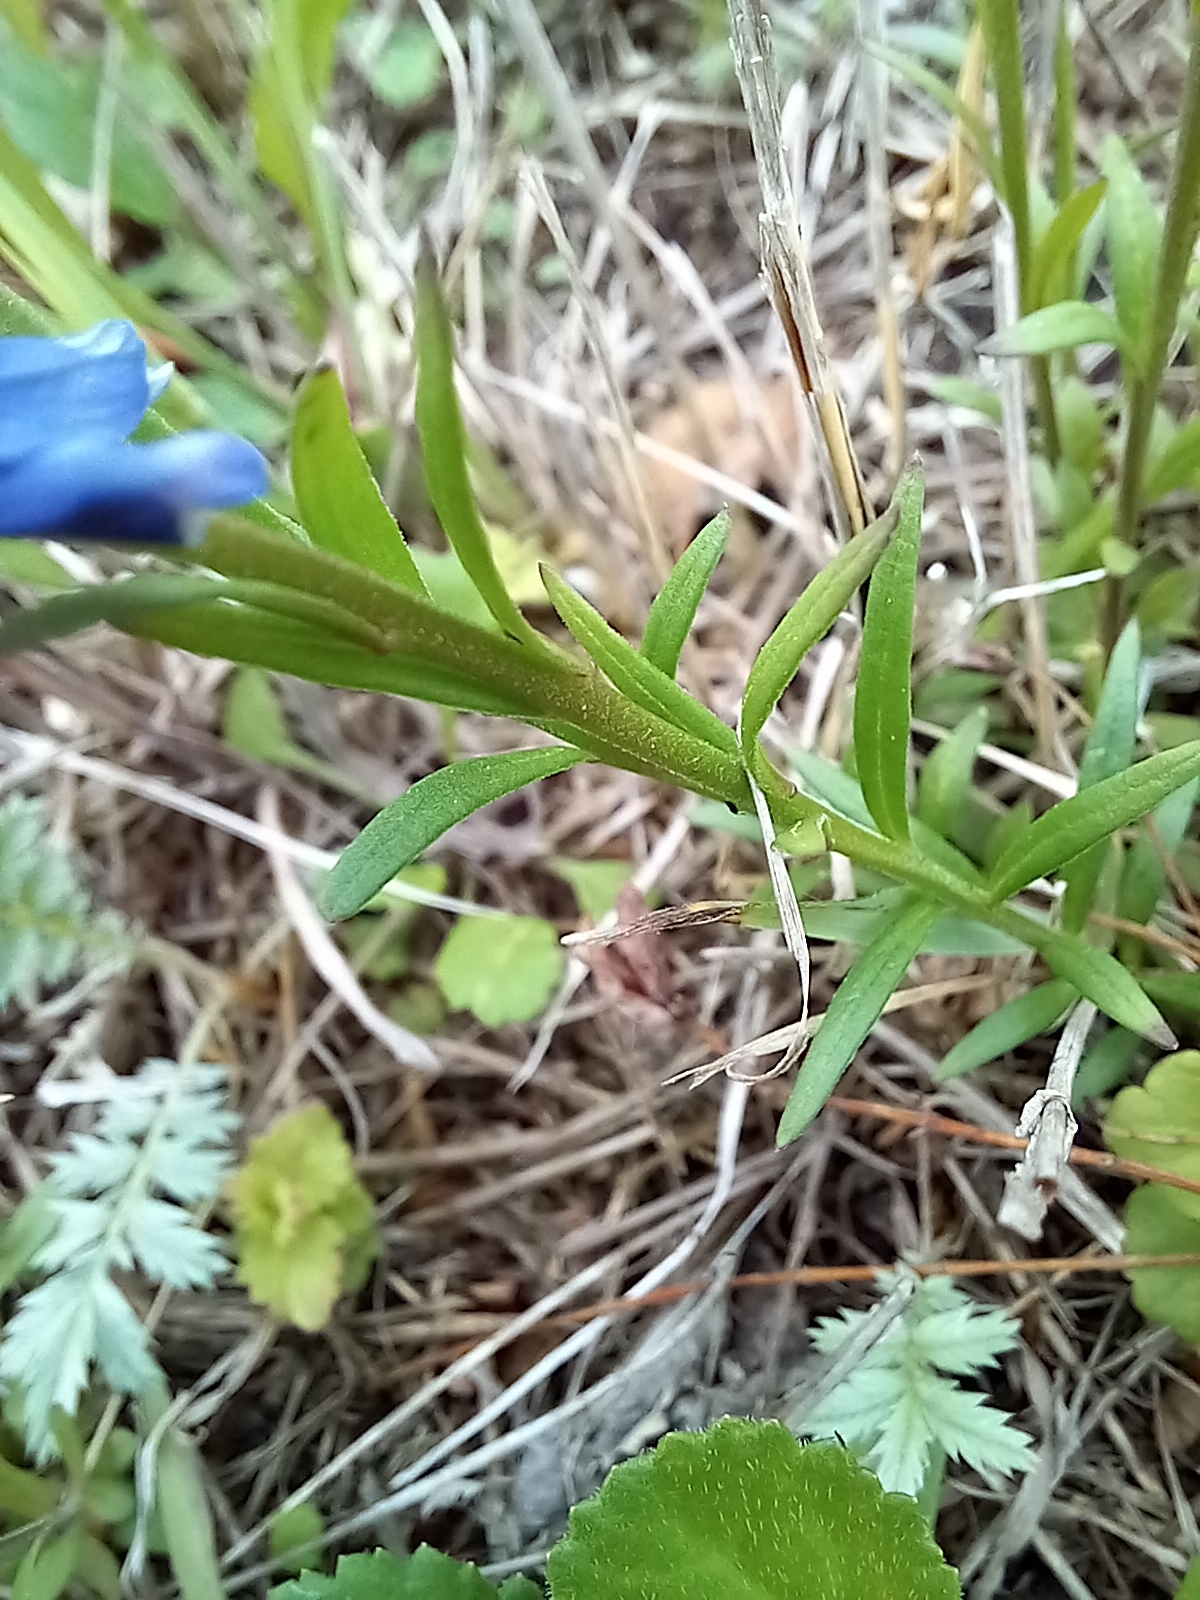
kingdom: Plantae
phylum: Tracheophyta
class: Magnoliopsida
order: Lamiales
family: Plantaginaceae
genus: Veronica
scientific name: Veronica chamaedrys
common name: Germander speedwell
